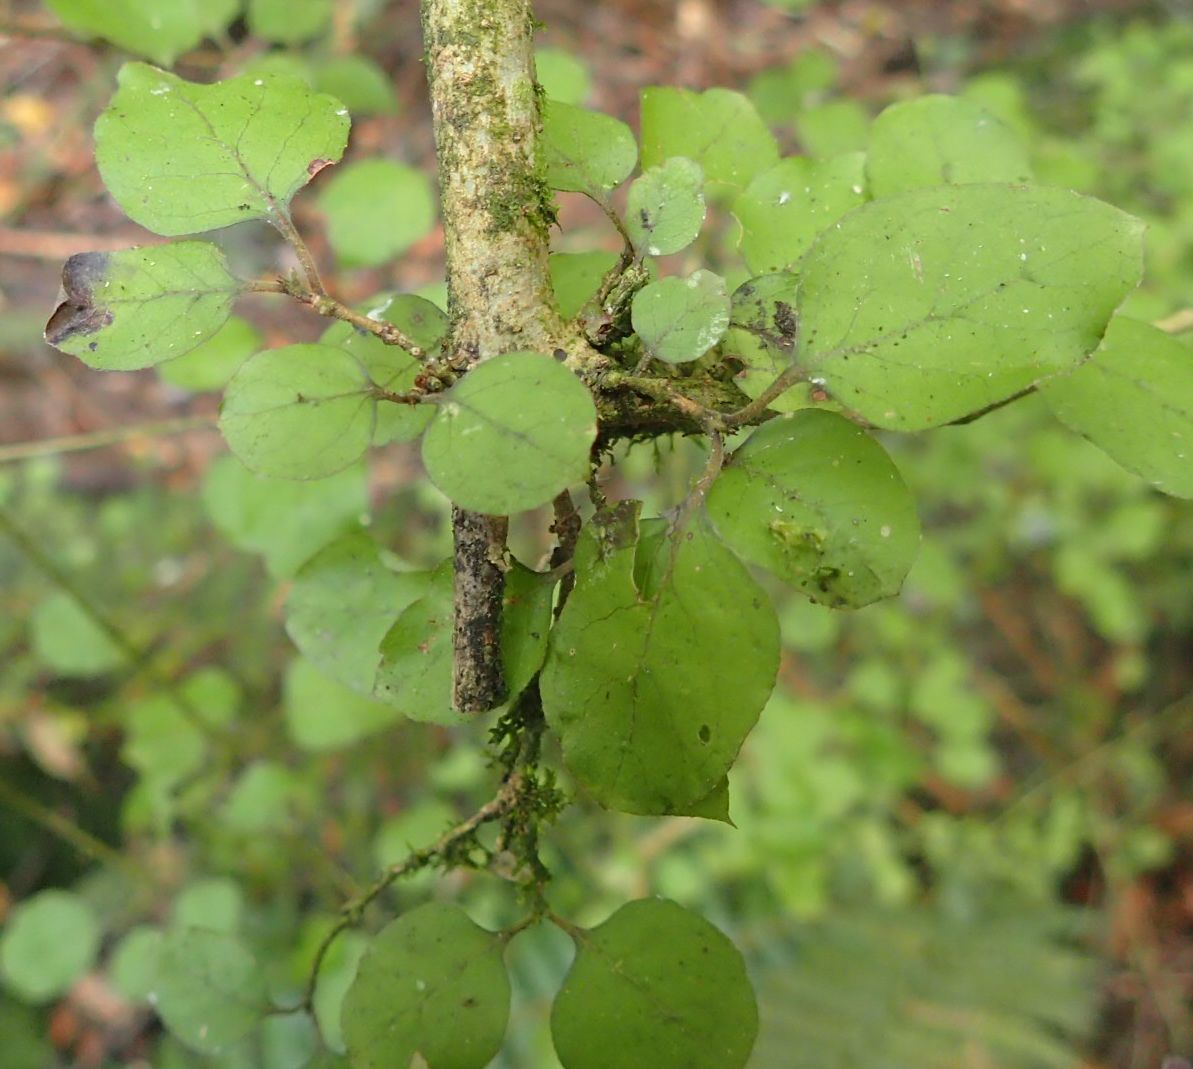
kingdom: Plantae
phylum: Tracheophyta
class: Magnoliopsida
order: Gentianales
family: Rubiaceae
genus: Coprosma
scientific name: Coprosma rotundifolia
